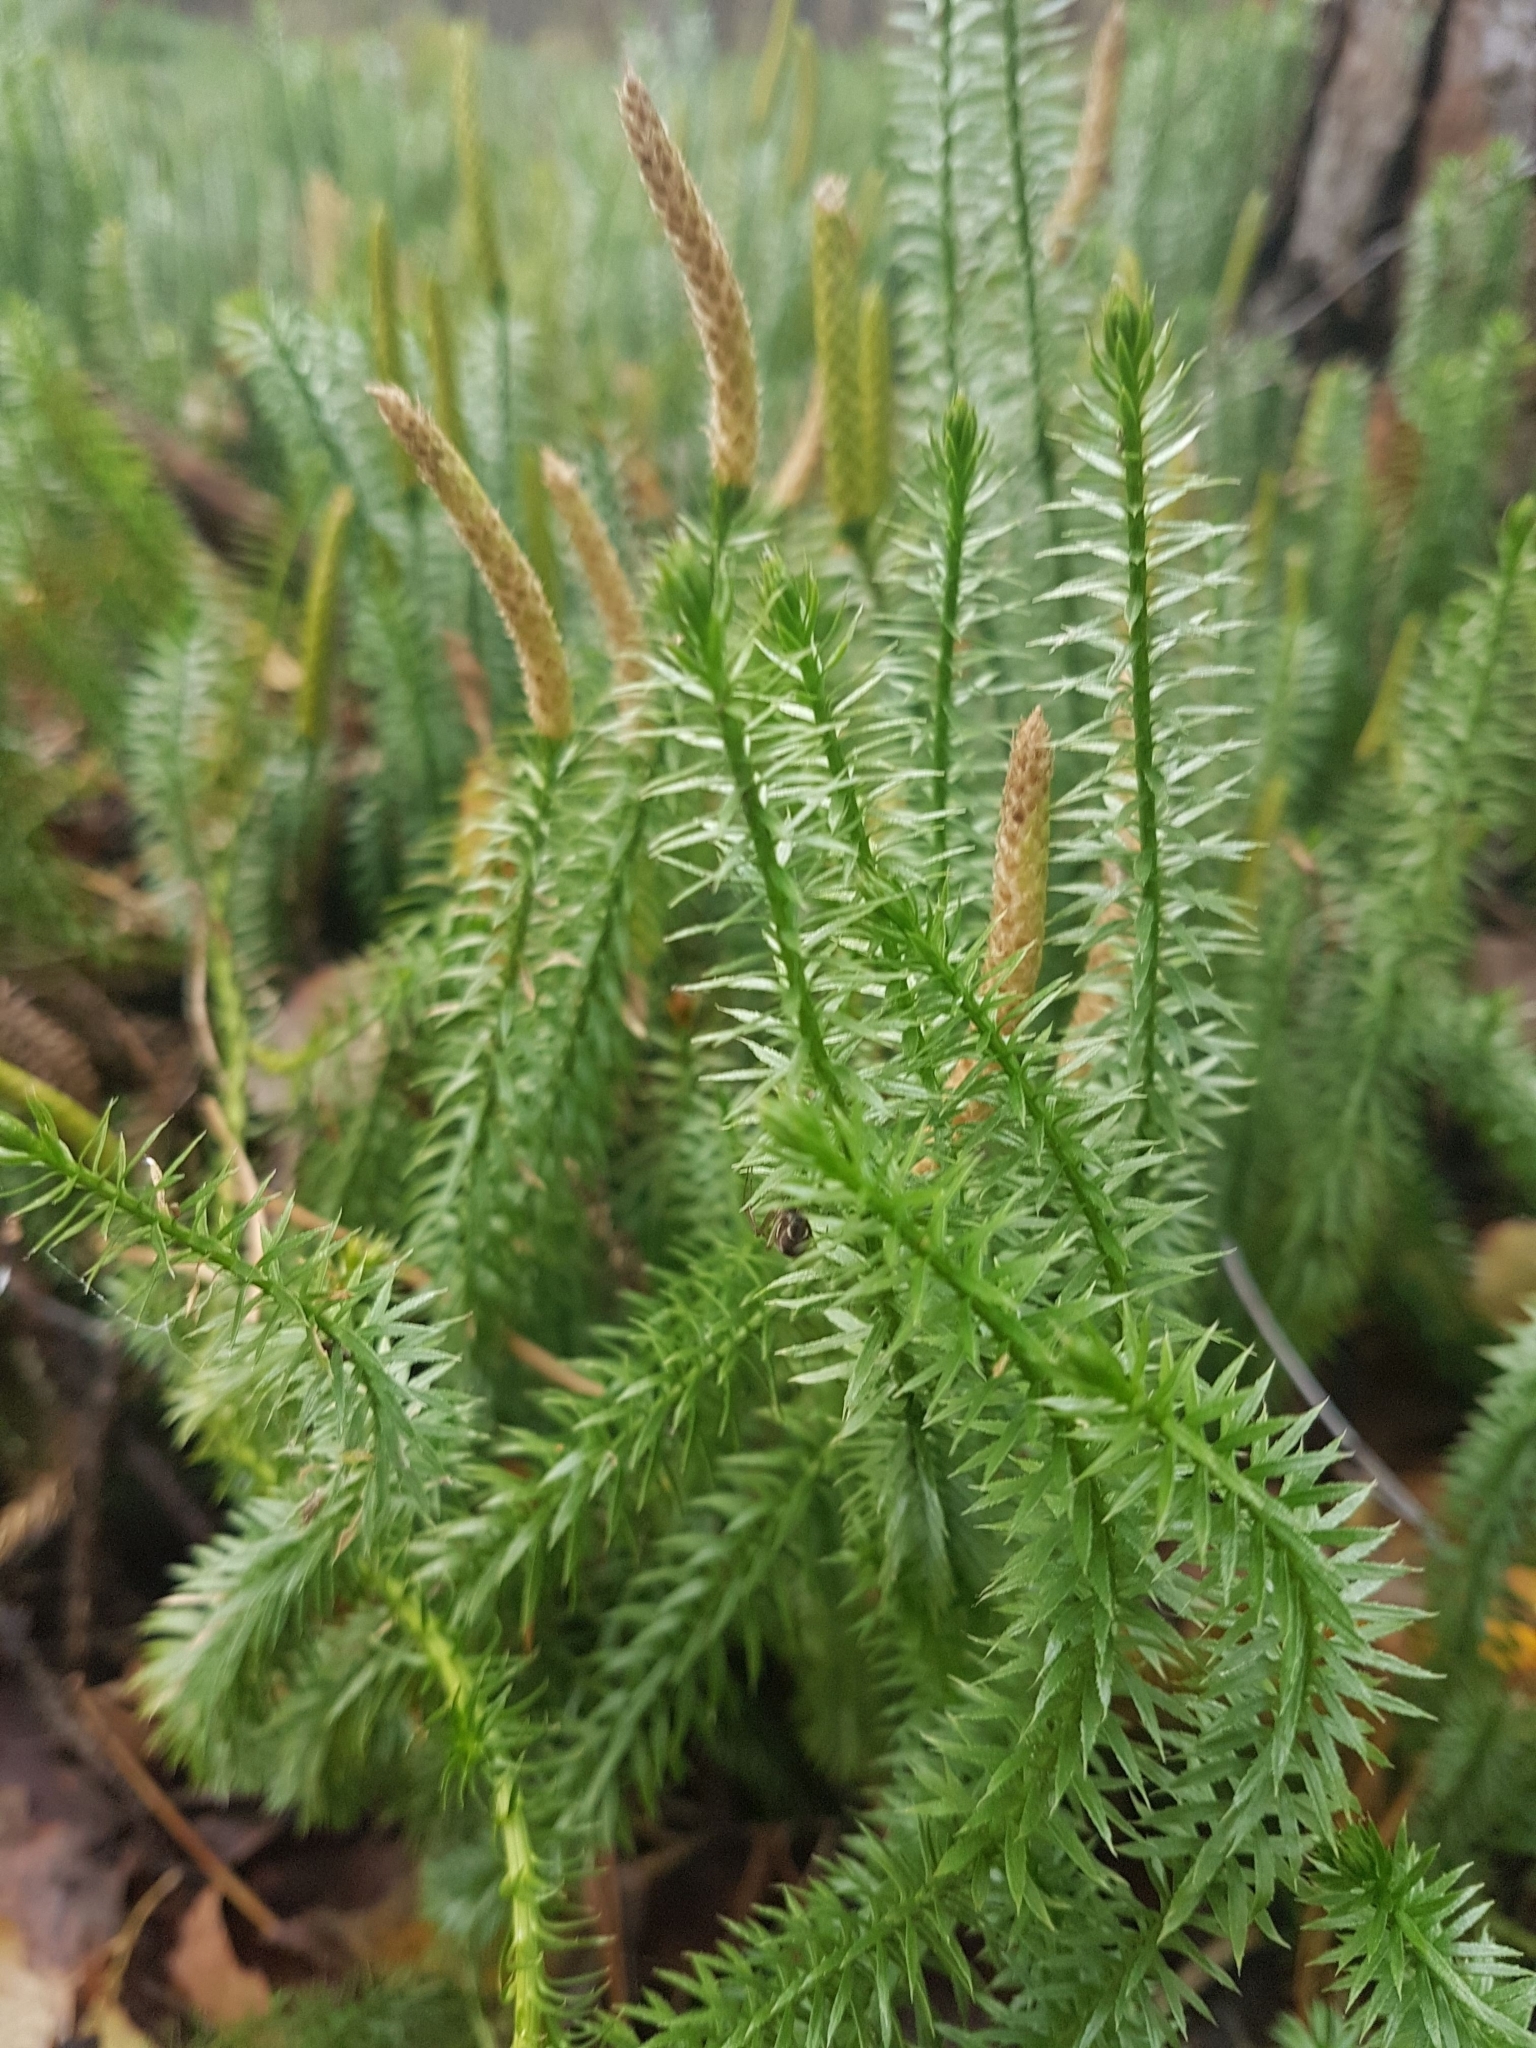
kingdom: Plantae
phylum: Tracheophyta
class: Lycopodiopsida
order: Lycopodiales
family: Lycopodiaceae
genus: Spinulum
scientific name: Spinulum annotinum
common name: Interrupted club-moss
